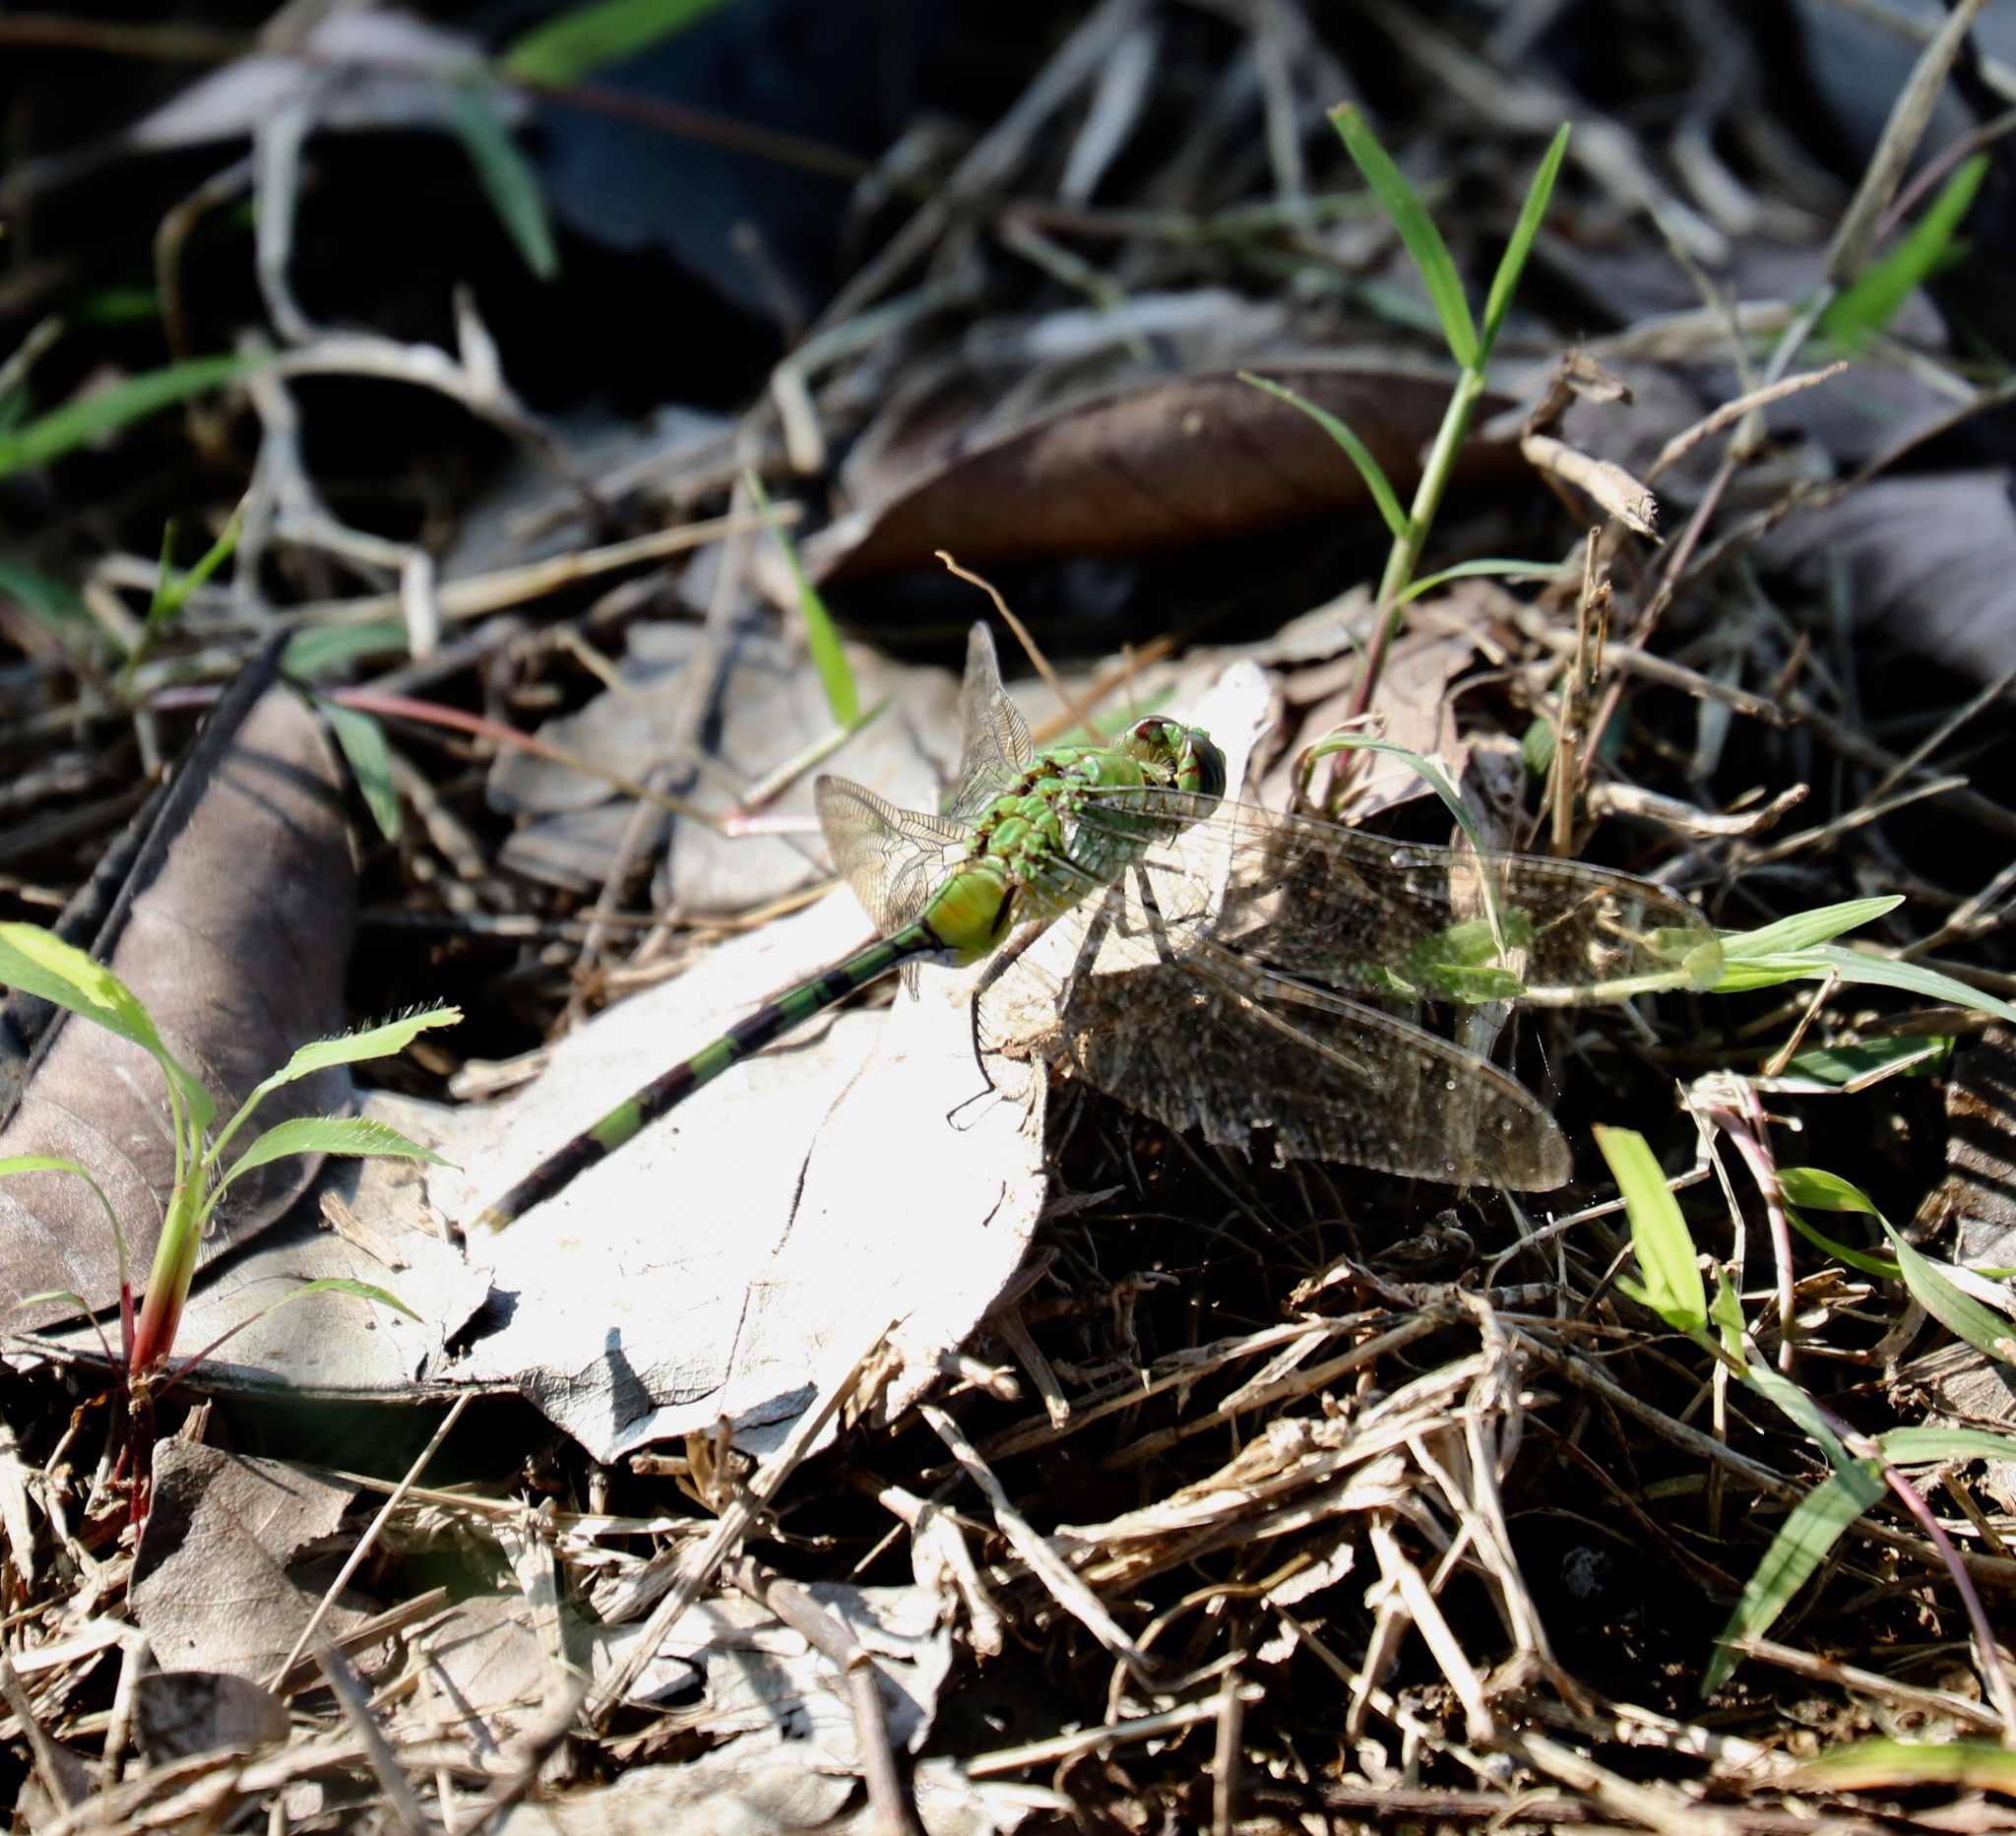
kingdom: Animalia
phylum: Arthropoda
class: Insecta
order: Odonata
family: Libellulidae
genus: Erythemis
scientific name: Erythemis vesiculosa
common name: Great pondhawk
